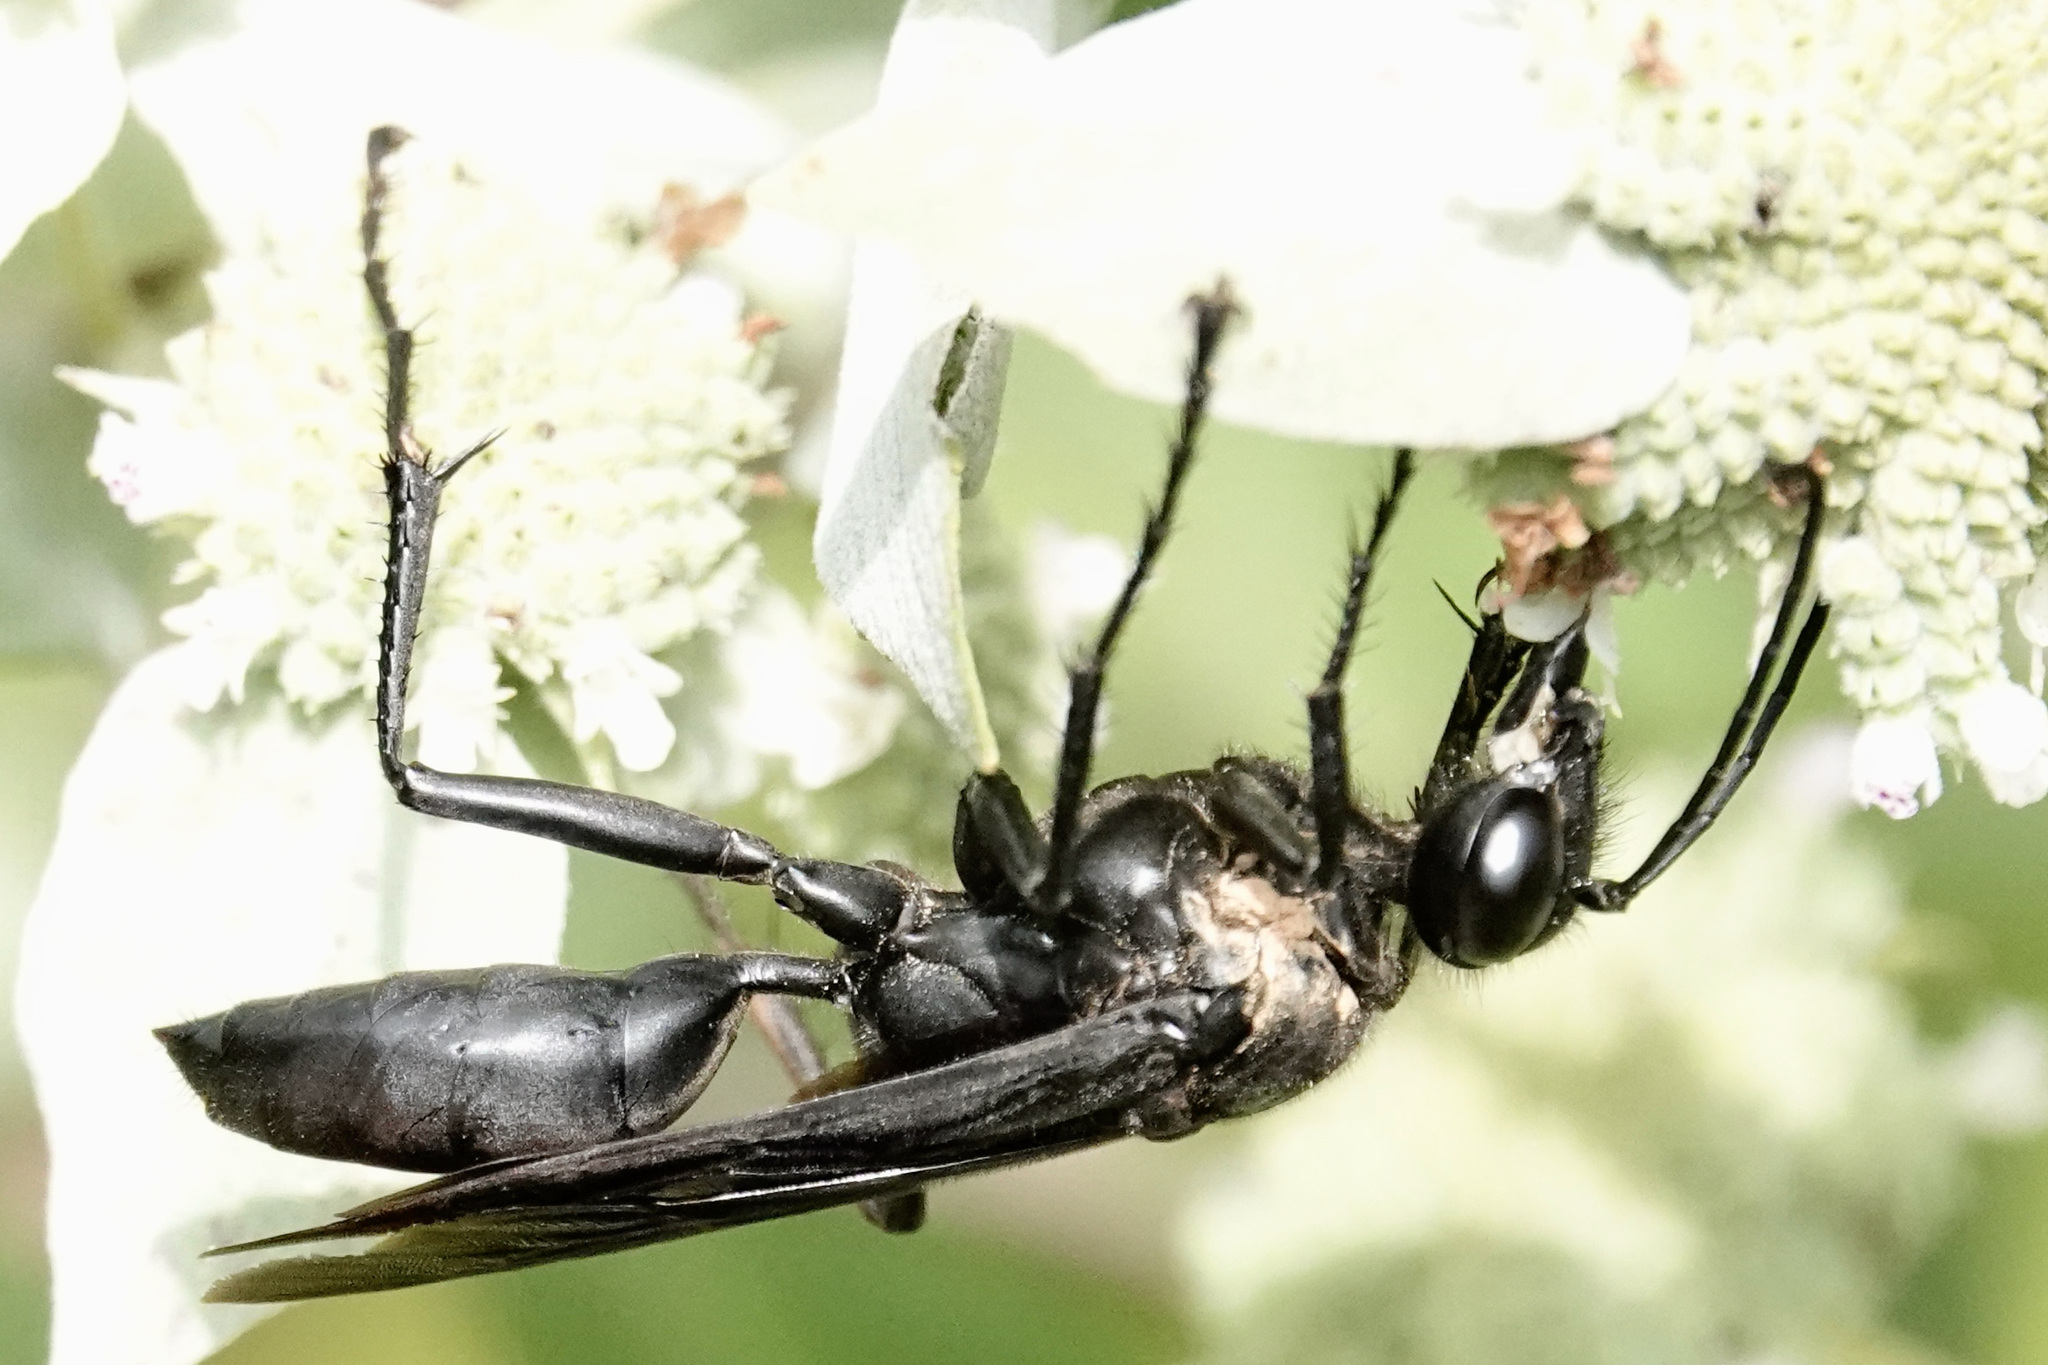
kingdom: Animalia
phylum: Arthropoda
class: Insecta
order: Hymenoptera
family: Sphecidae
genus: Sphex
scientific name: Sphex pensylvanicus
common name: Great black digger wasp
